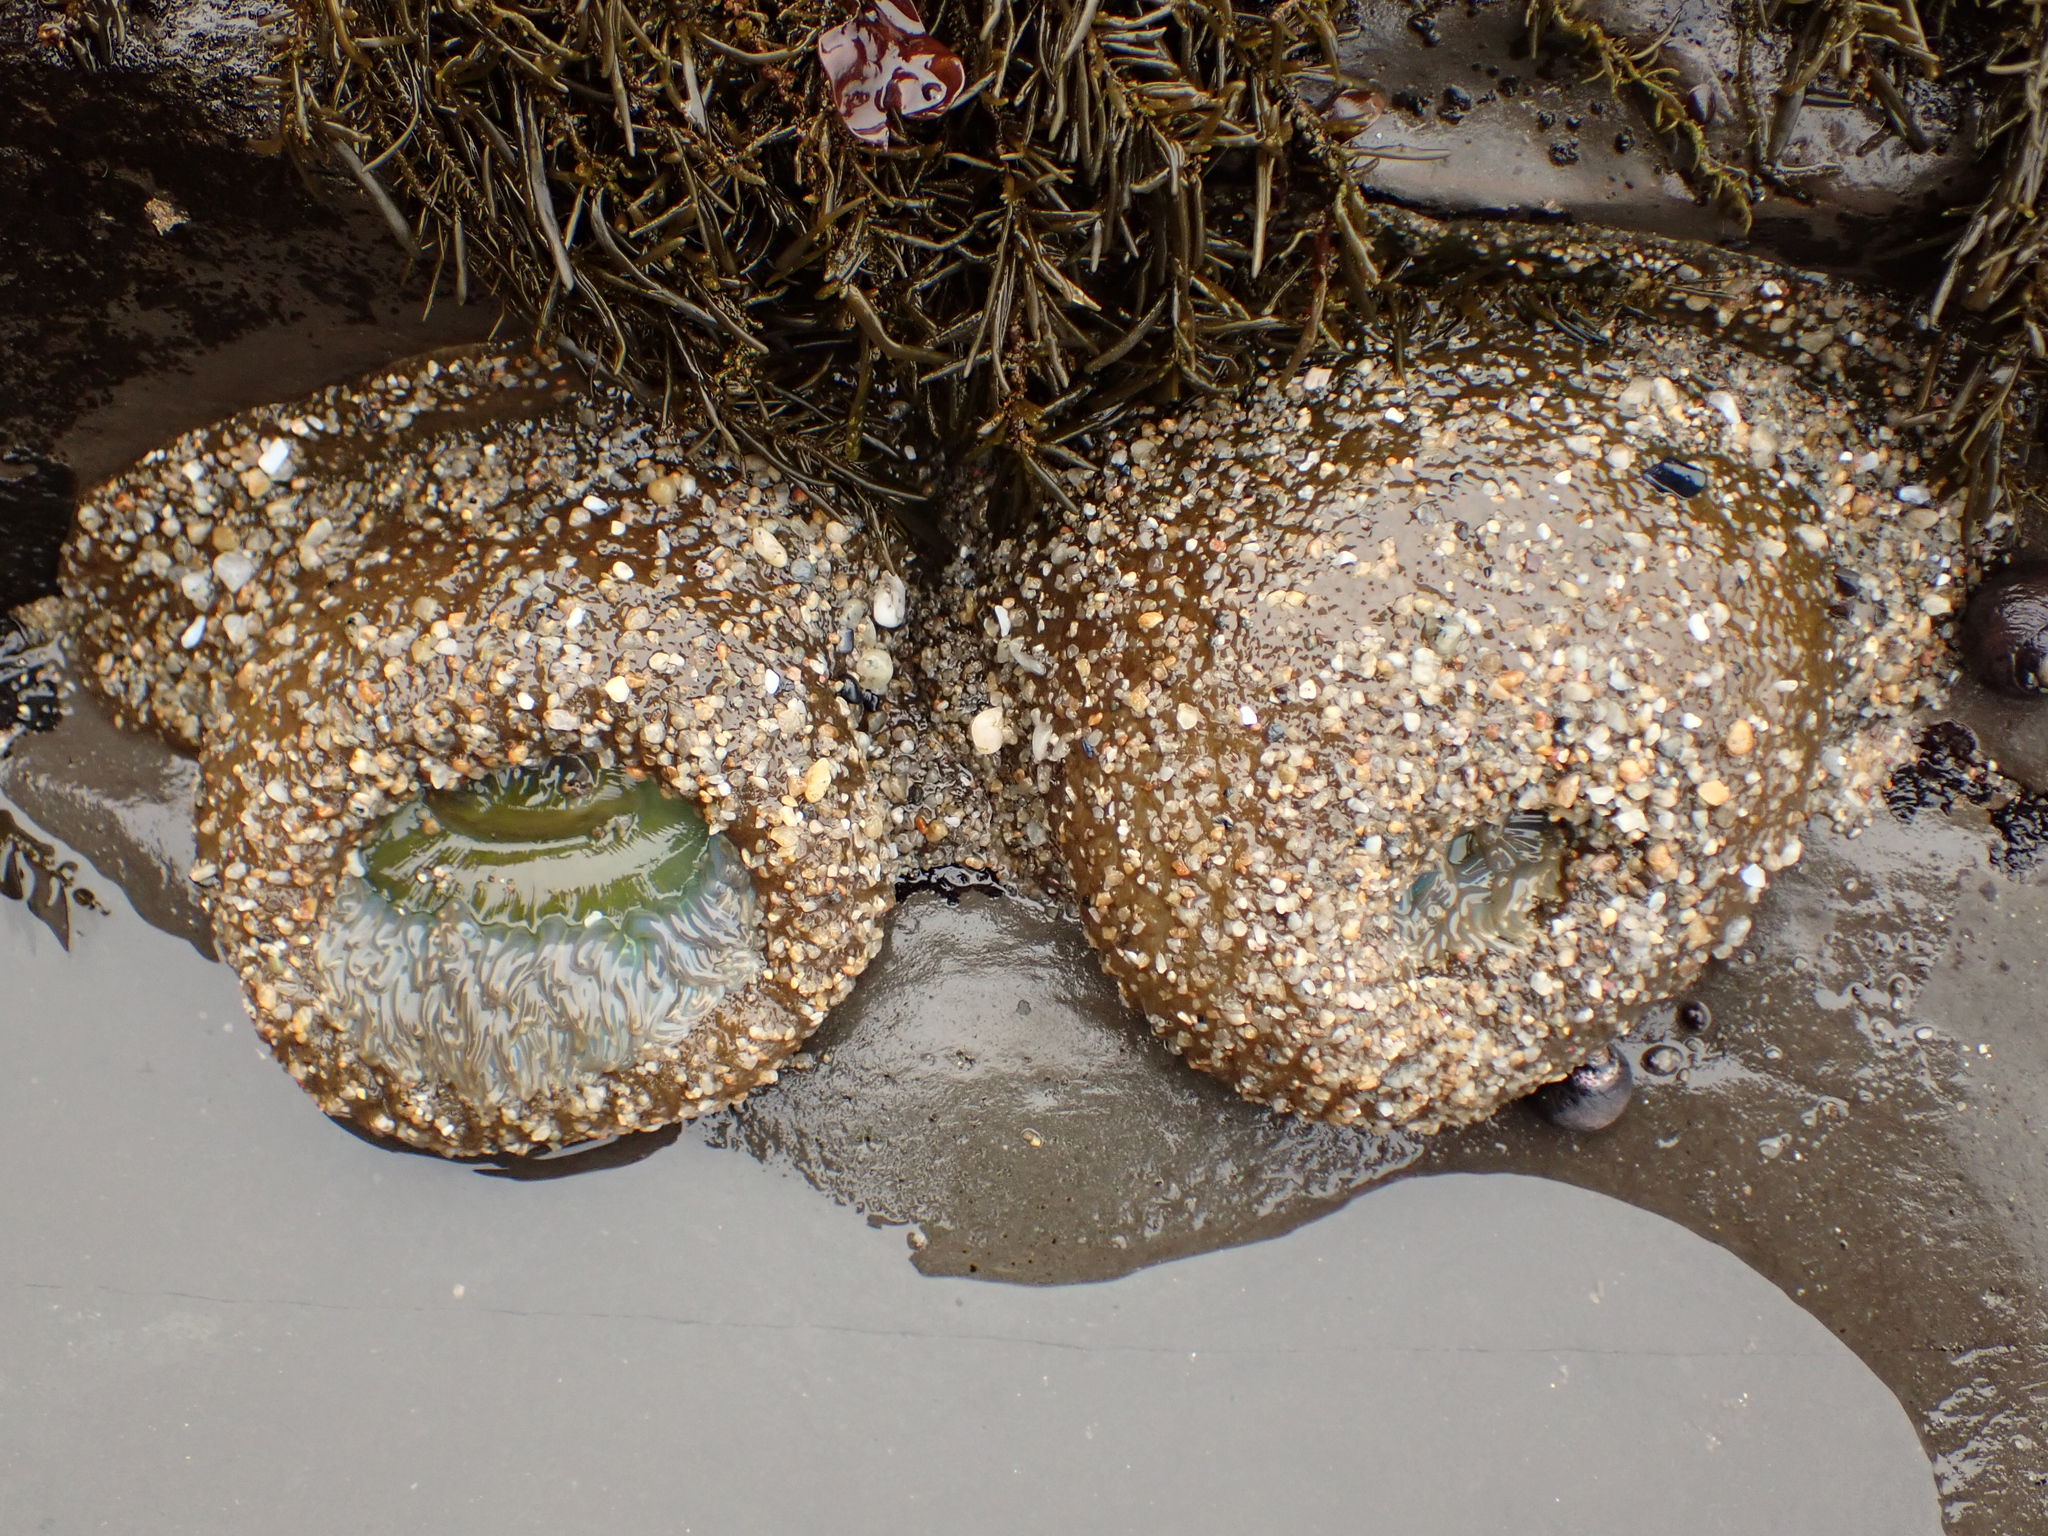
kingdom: Animalia
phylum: Cnidaria
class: Anthozoa
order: Actiniaria
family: Actiniidae
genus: Anthopleura
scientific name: Anthopleura xanthogrammica
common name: Giant green anemone
